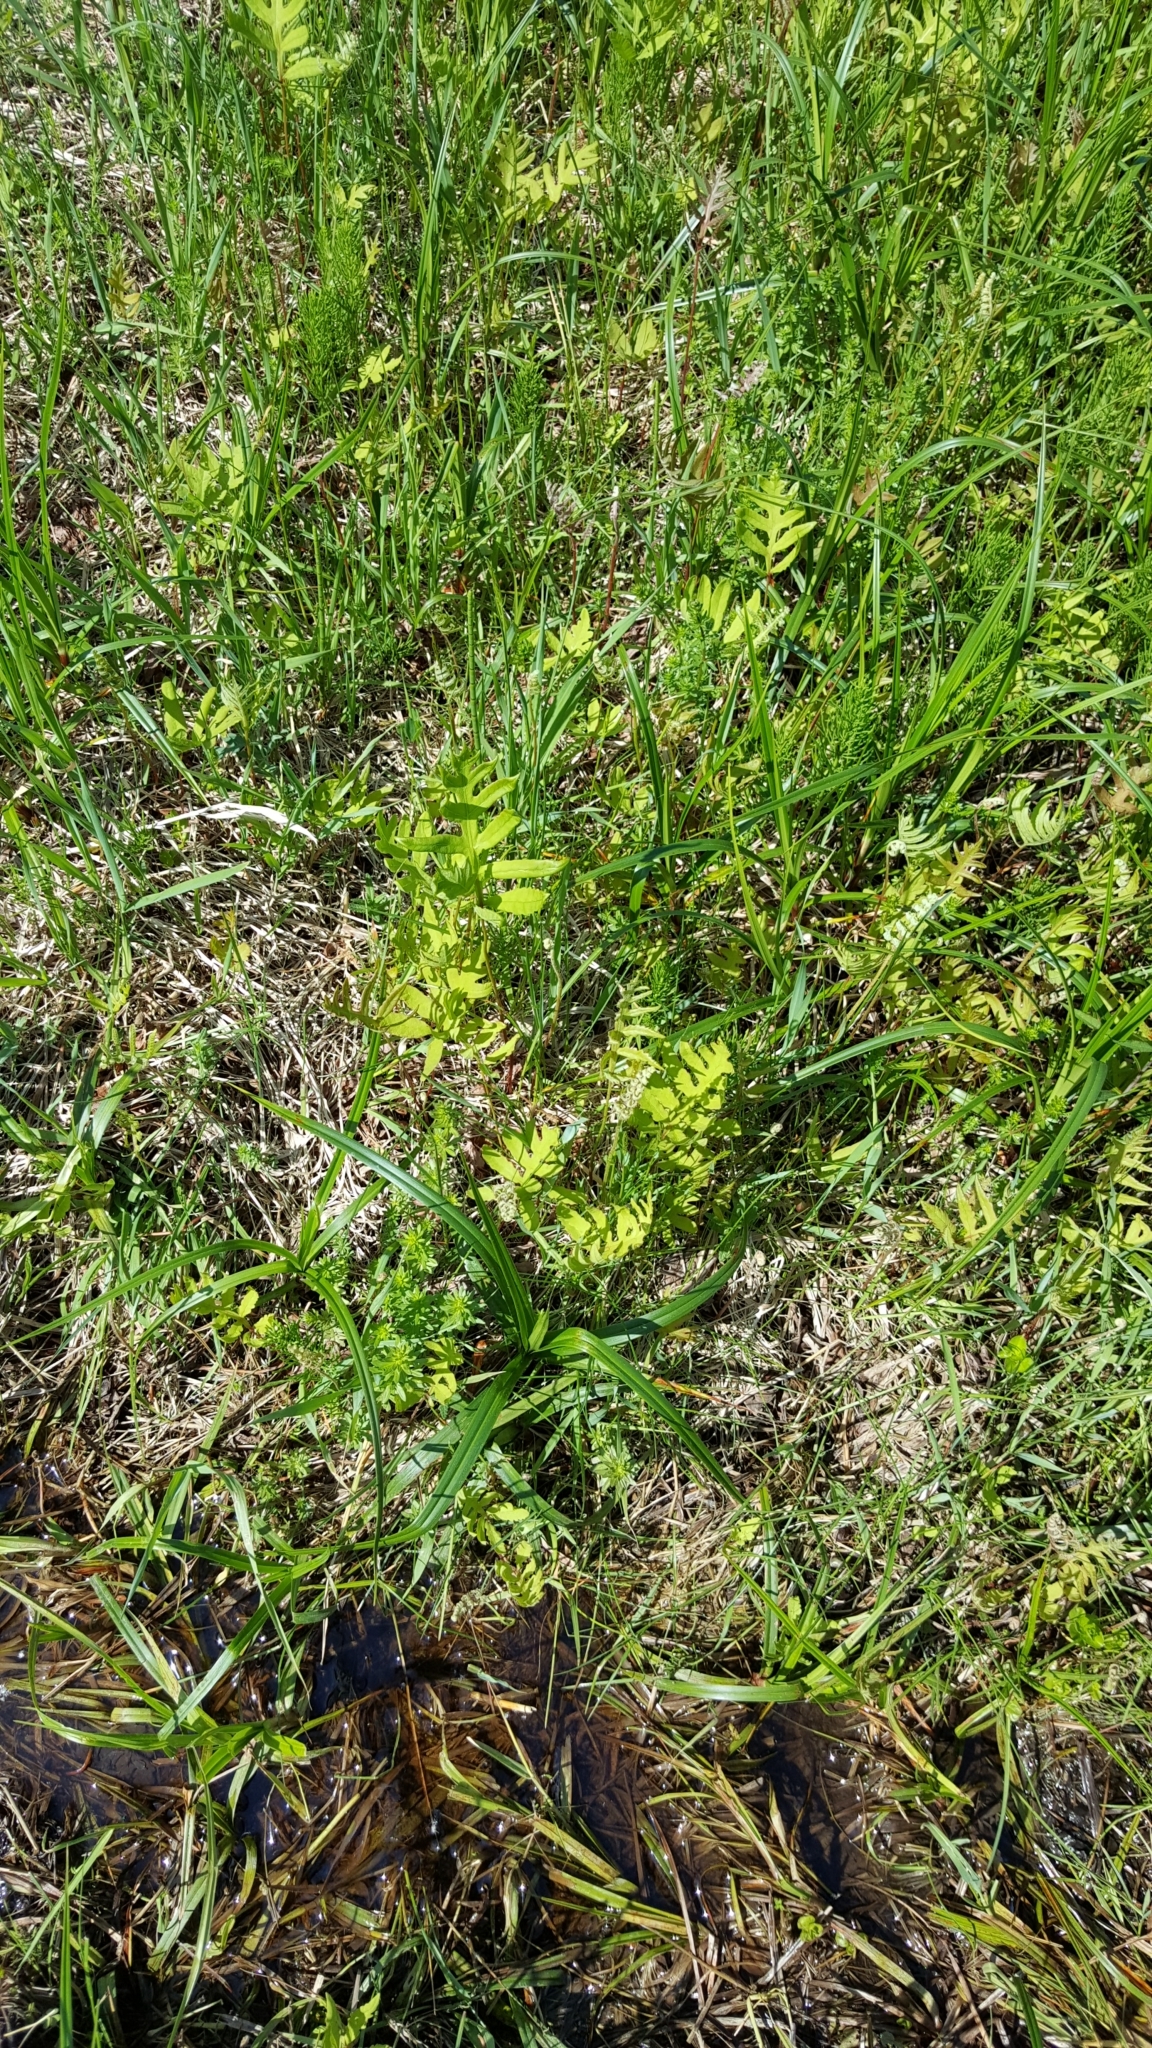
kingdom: Plantae
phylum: Tracheophyta
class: Polypodiopsida
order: Polypodiales
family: Onocleaceae
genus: Onoclea
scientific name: Onoclea sensibilis
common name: Sensitive fern
